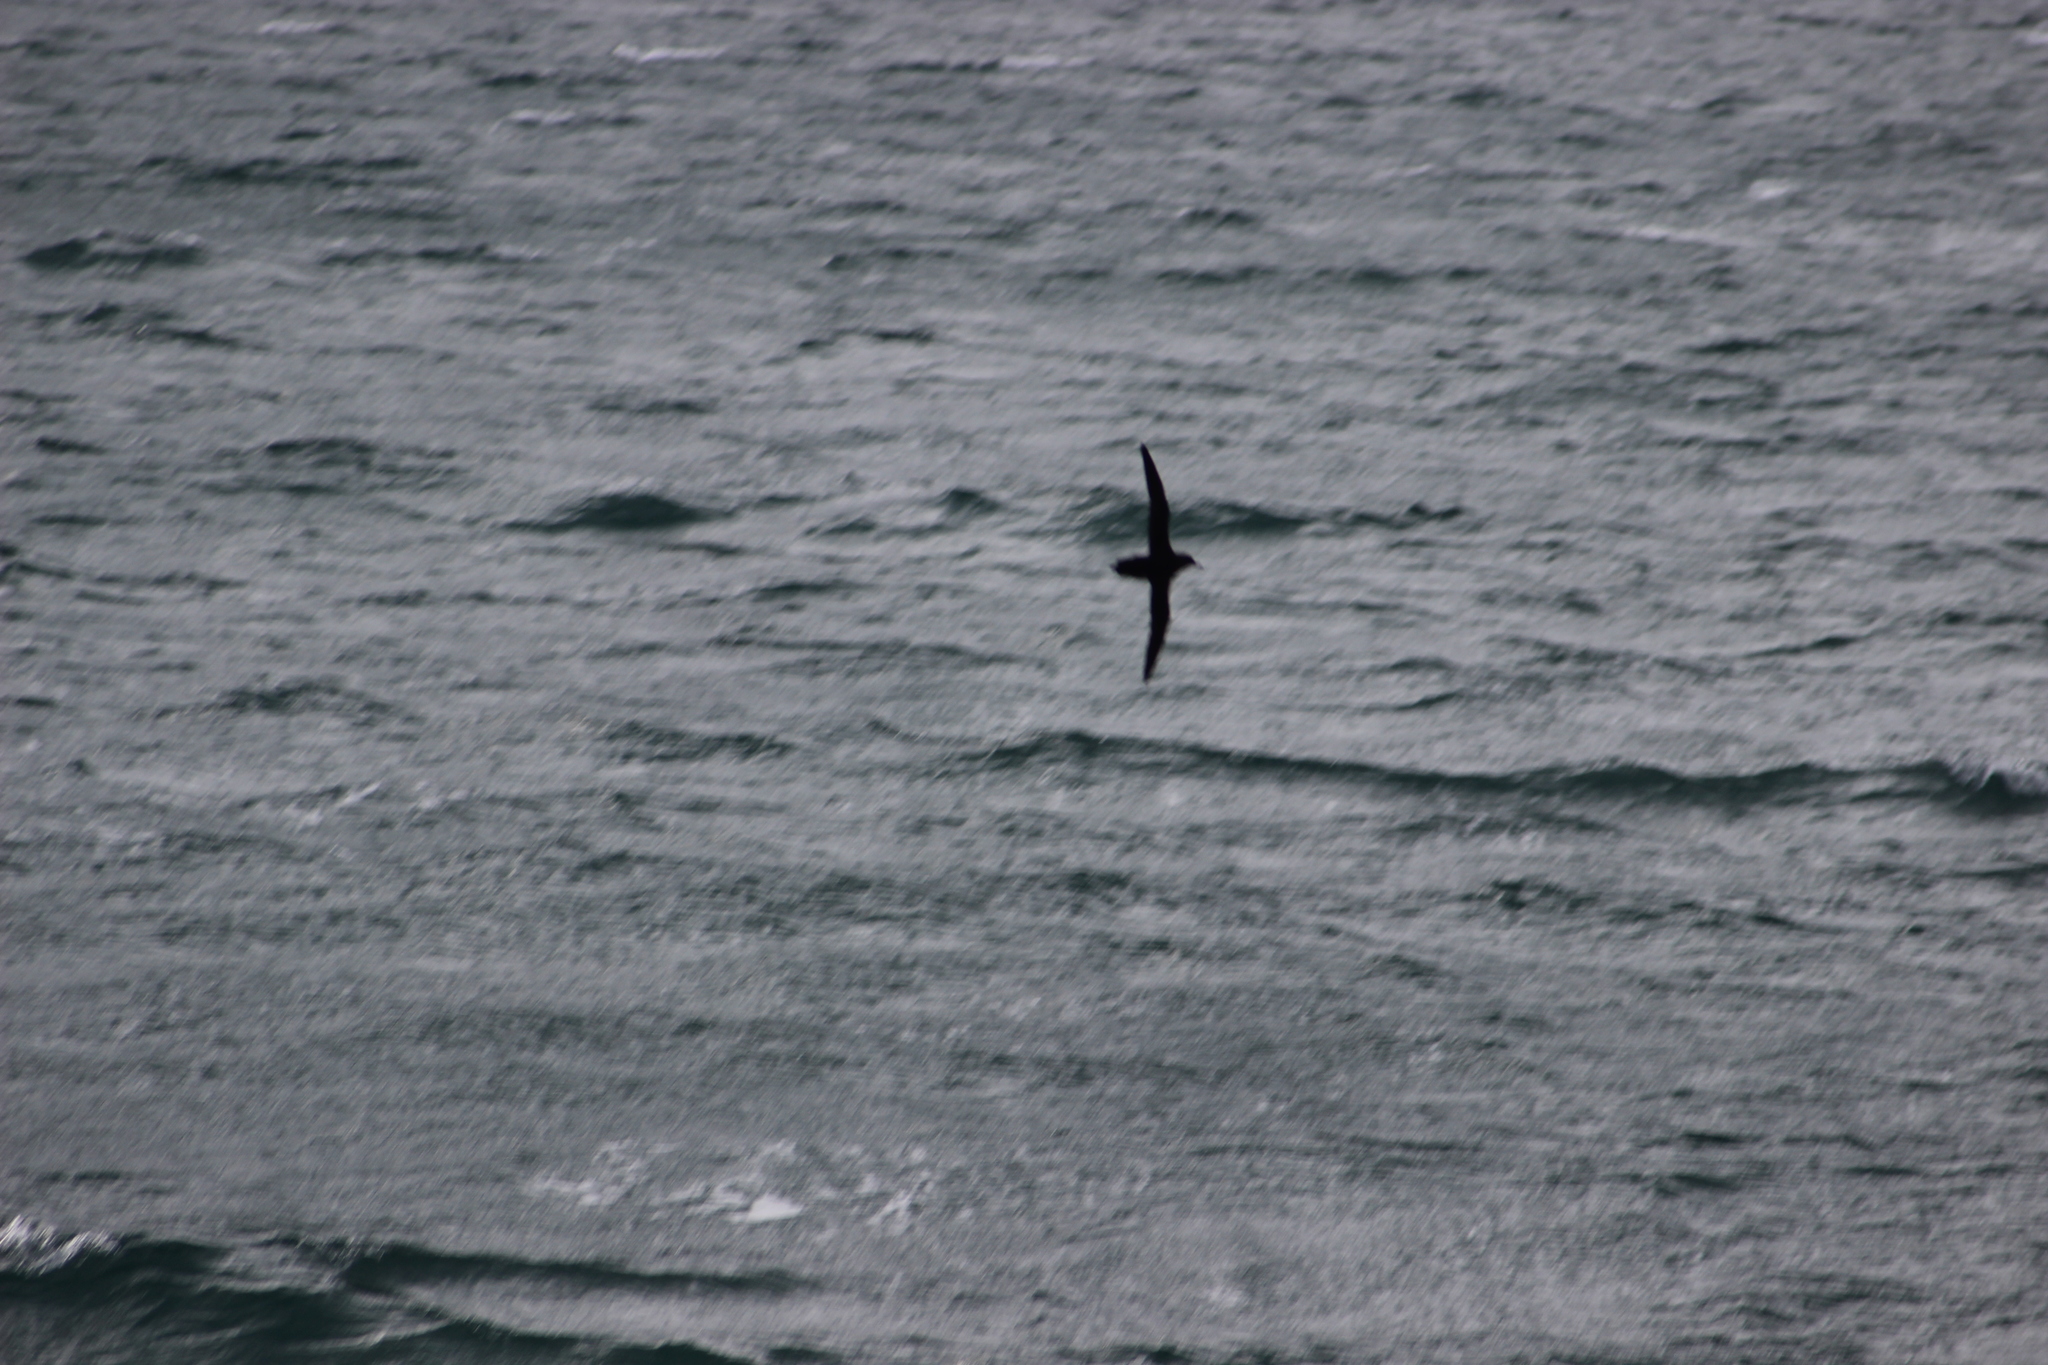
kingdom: Animalia
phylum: Chordata
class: Aves
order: Procellariiformes
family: Procellariidae
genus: Puffinus
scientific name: Puffinus gavia
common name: Fluttering shearwater
